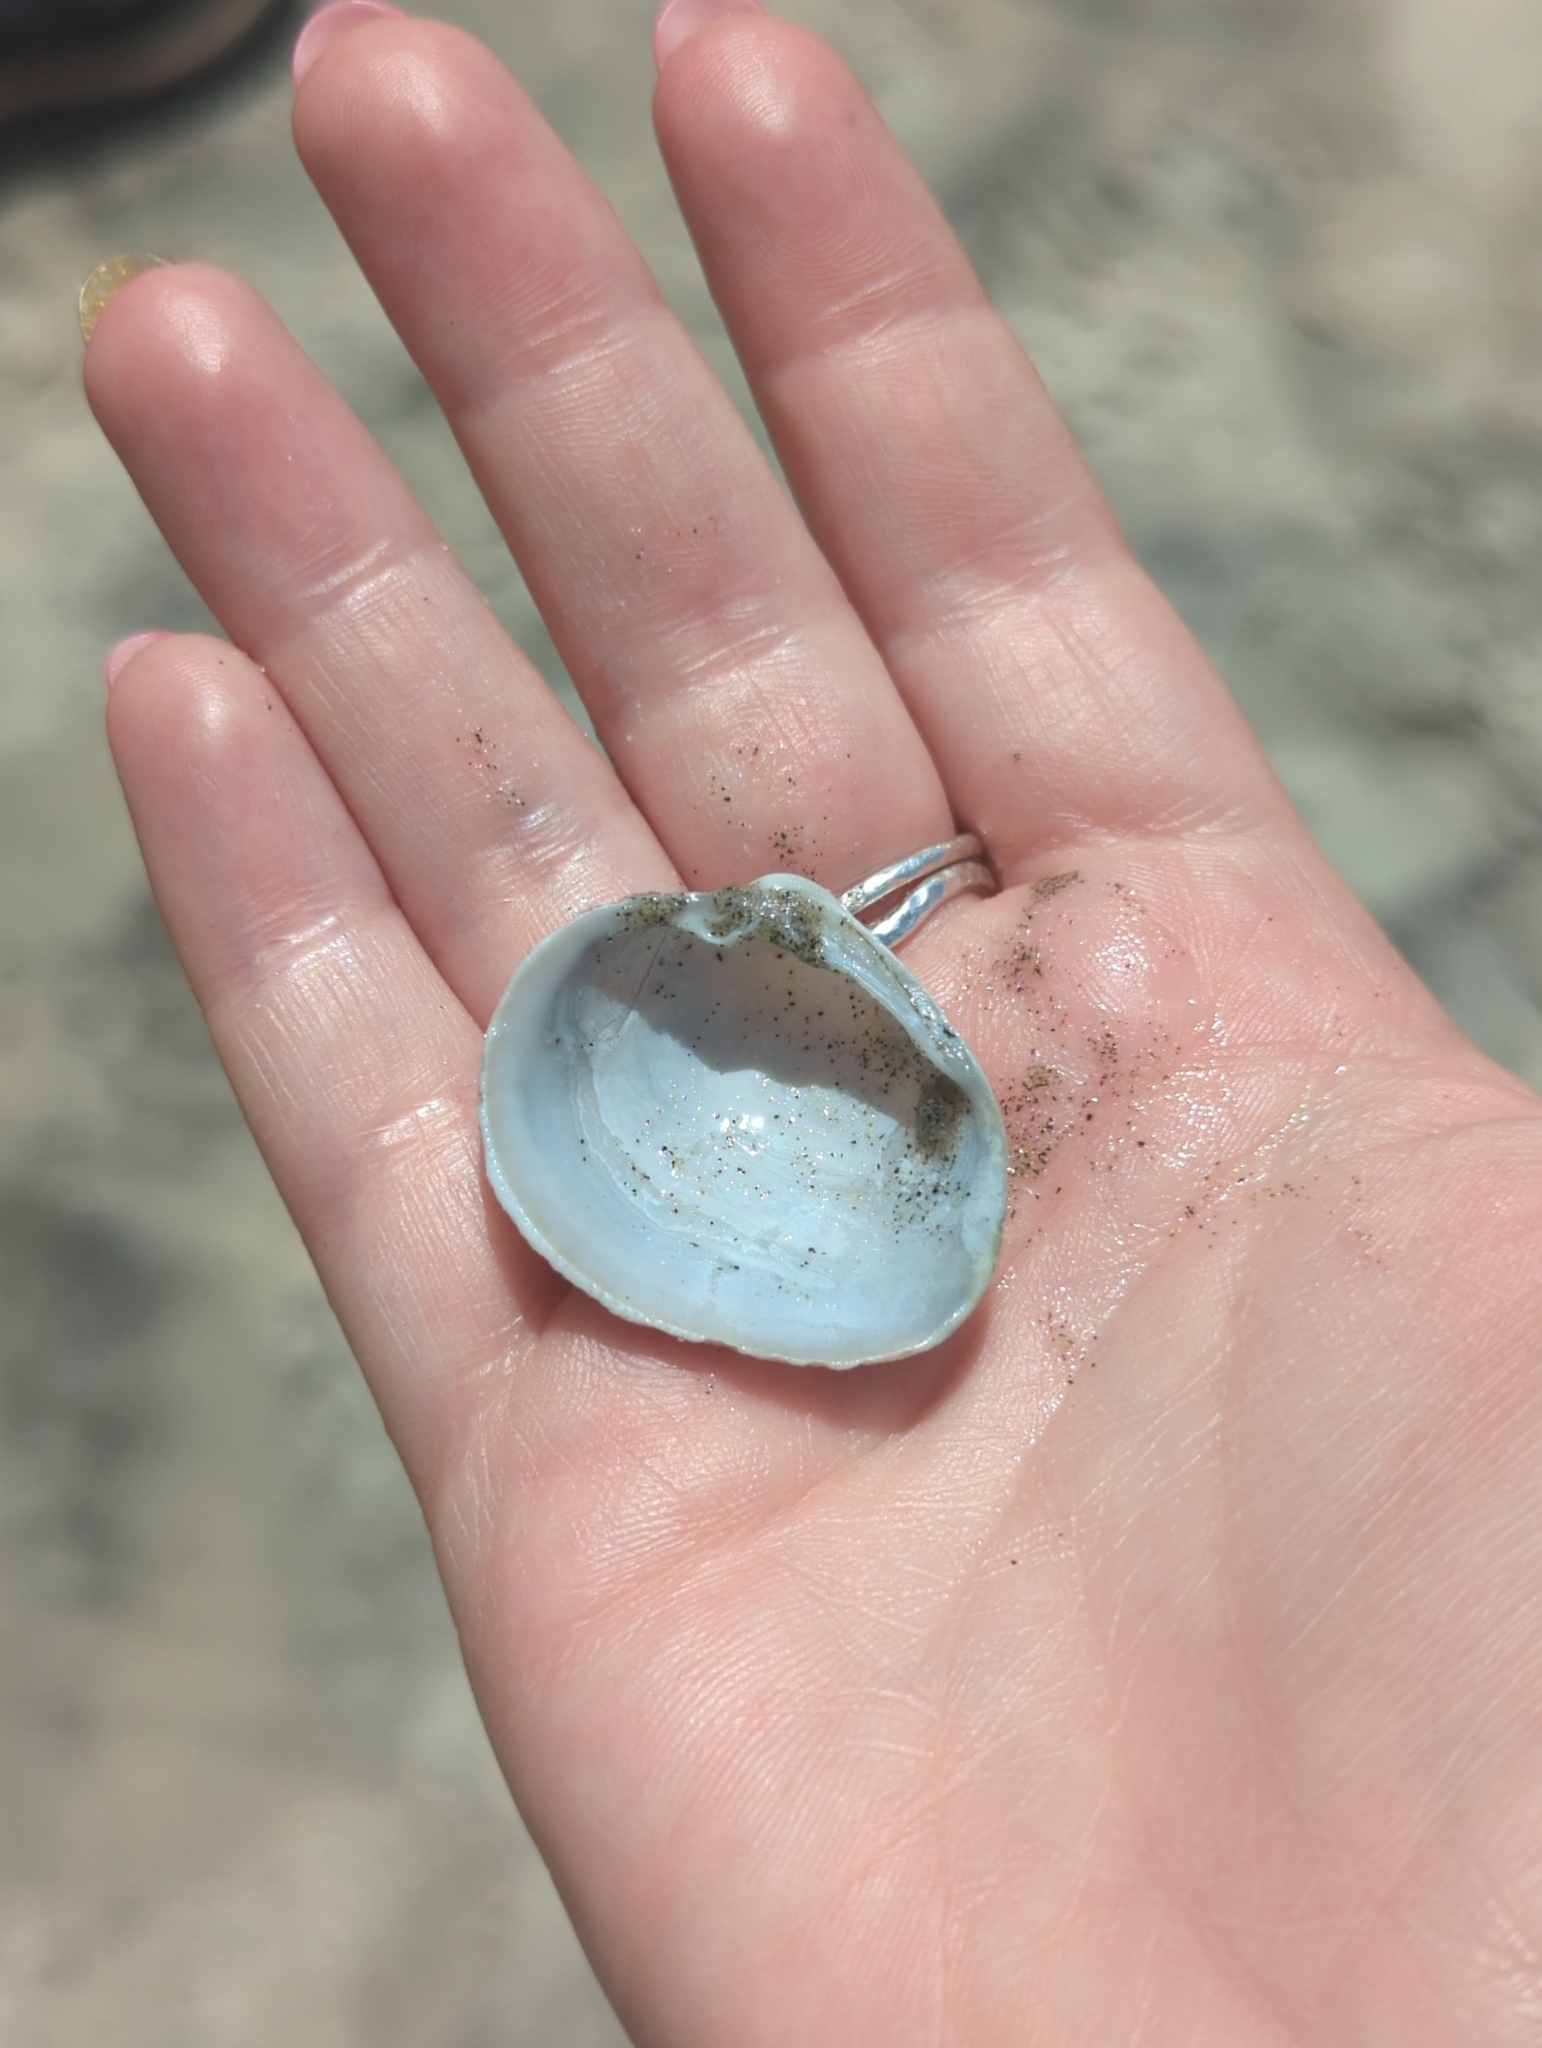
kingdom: Animalia
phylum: Mollusca
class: Bivalvia
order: Venerida
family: Veneridae
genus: Leukoma
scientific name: Leukoma staminea
